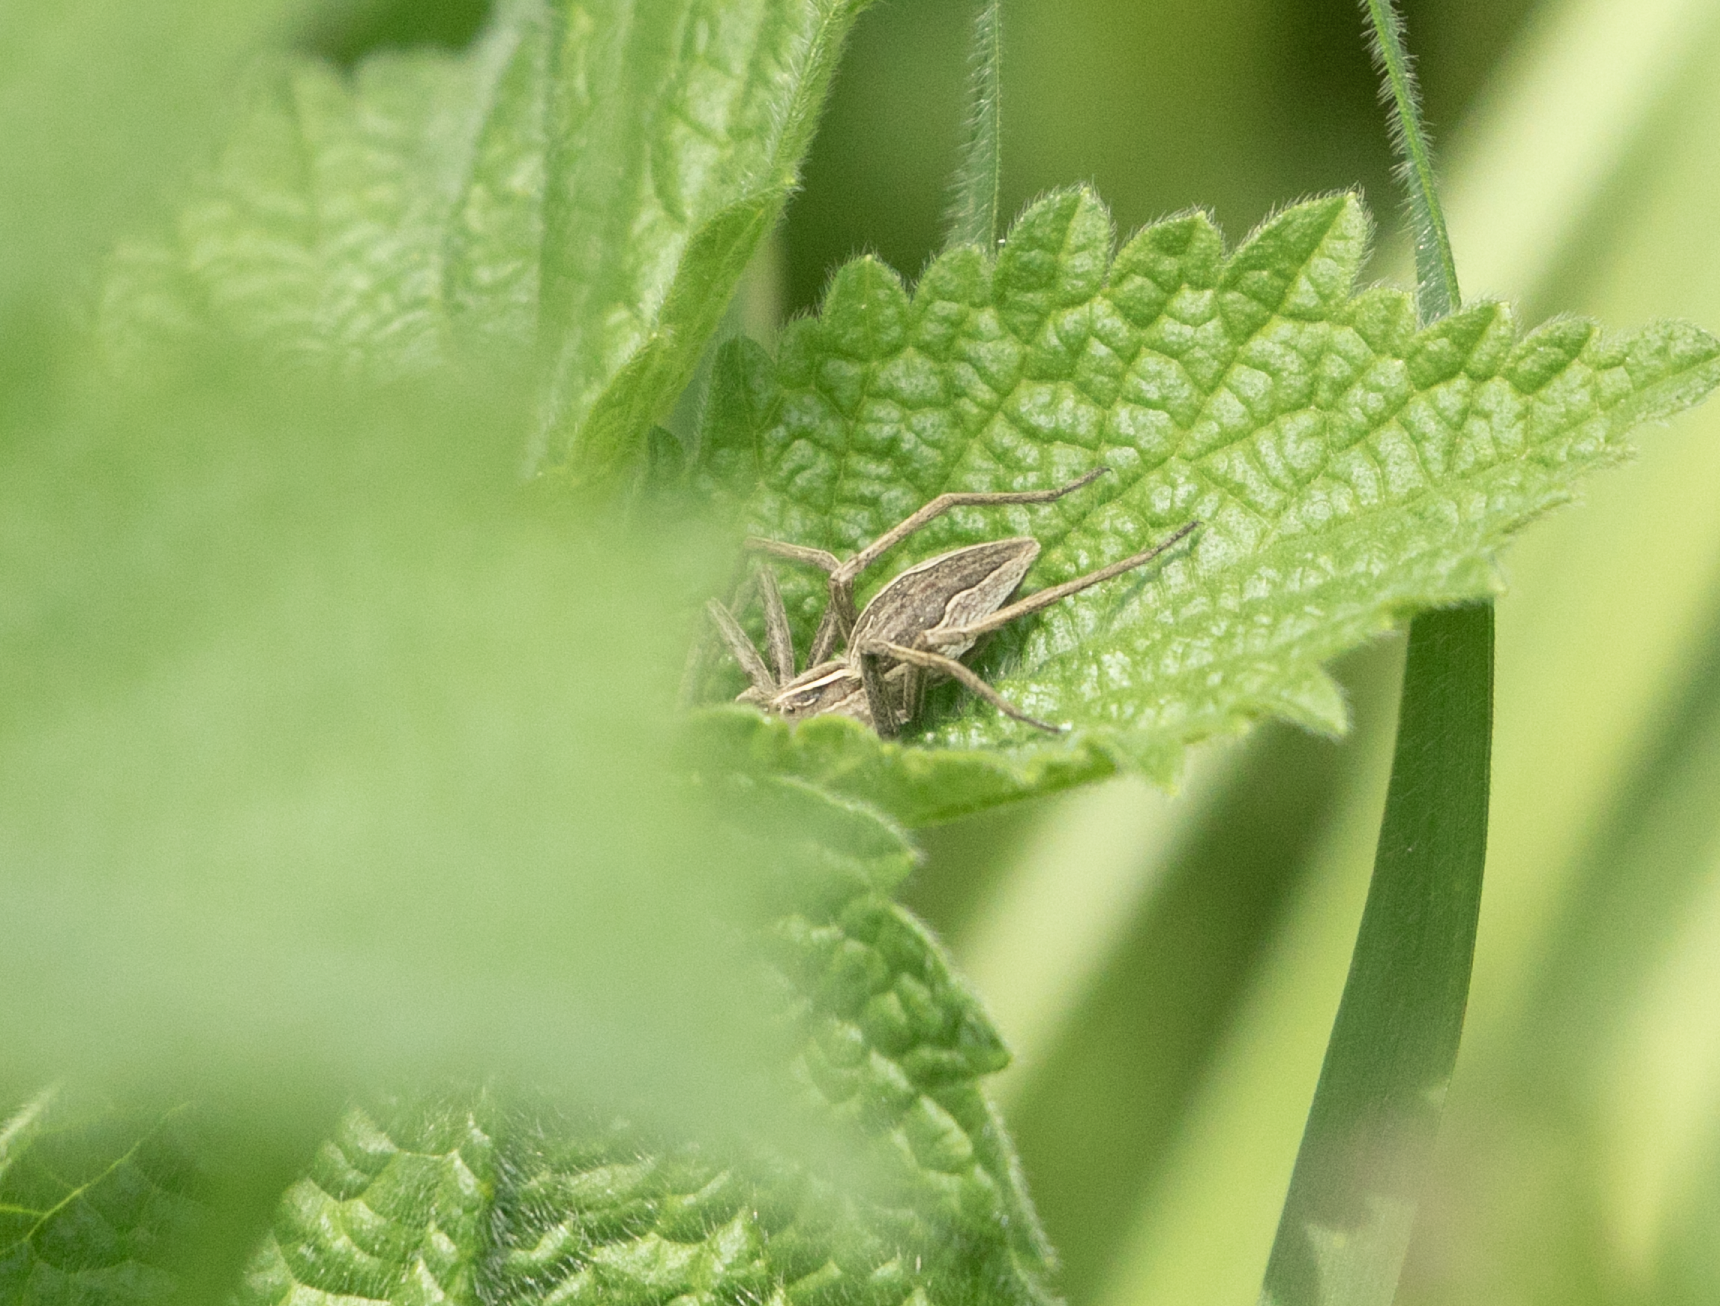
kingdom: Animalia
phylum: Arthropoda
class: Arachnida
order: Araneae
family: Pisauridae
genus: Pisaura
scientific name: Pisaura mirabilis
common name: Tent spider
